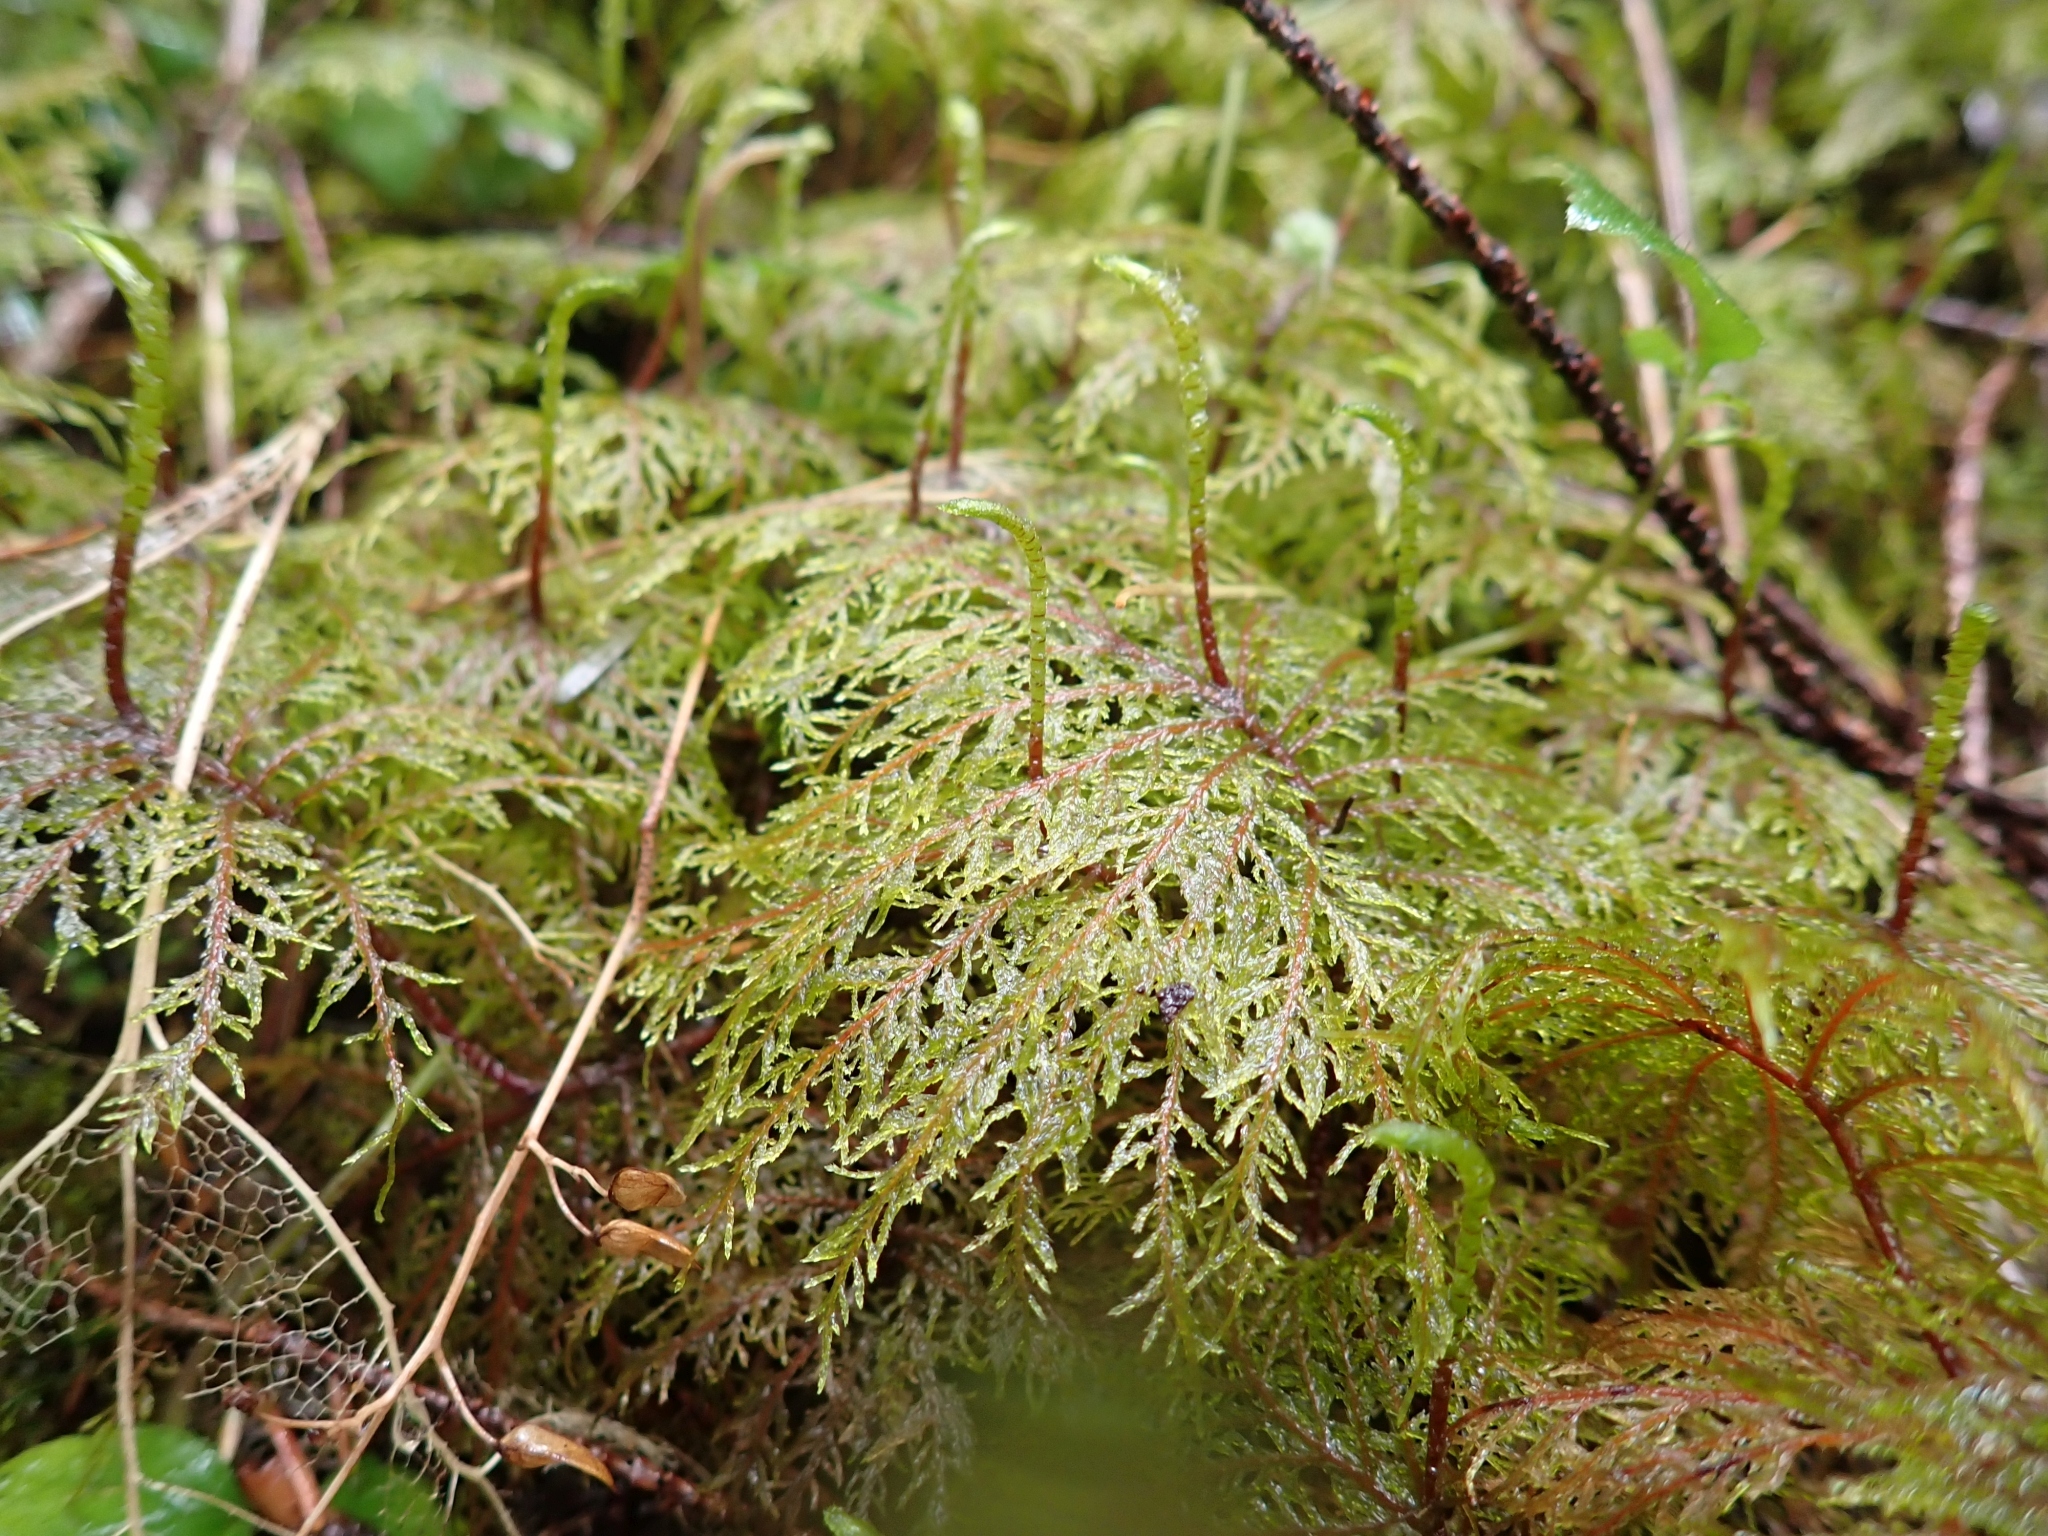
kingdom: Plantae
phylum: Bryophyta
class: Bryopsida
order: Hypnales
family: Hylocomiaceae
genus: Hylocomium
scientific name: Hylocomium splendens
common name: Stairstep moss
